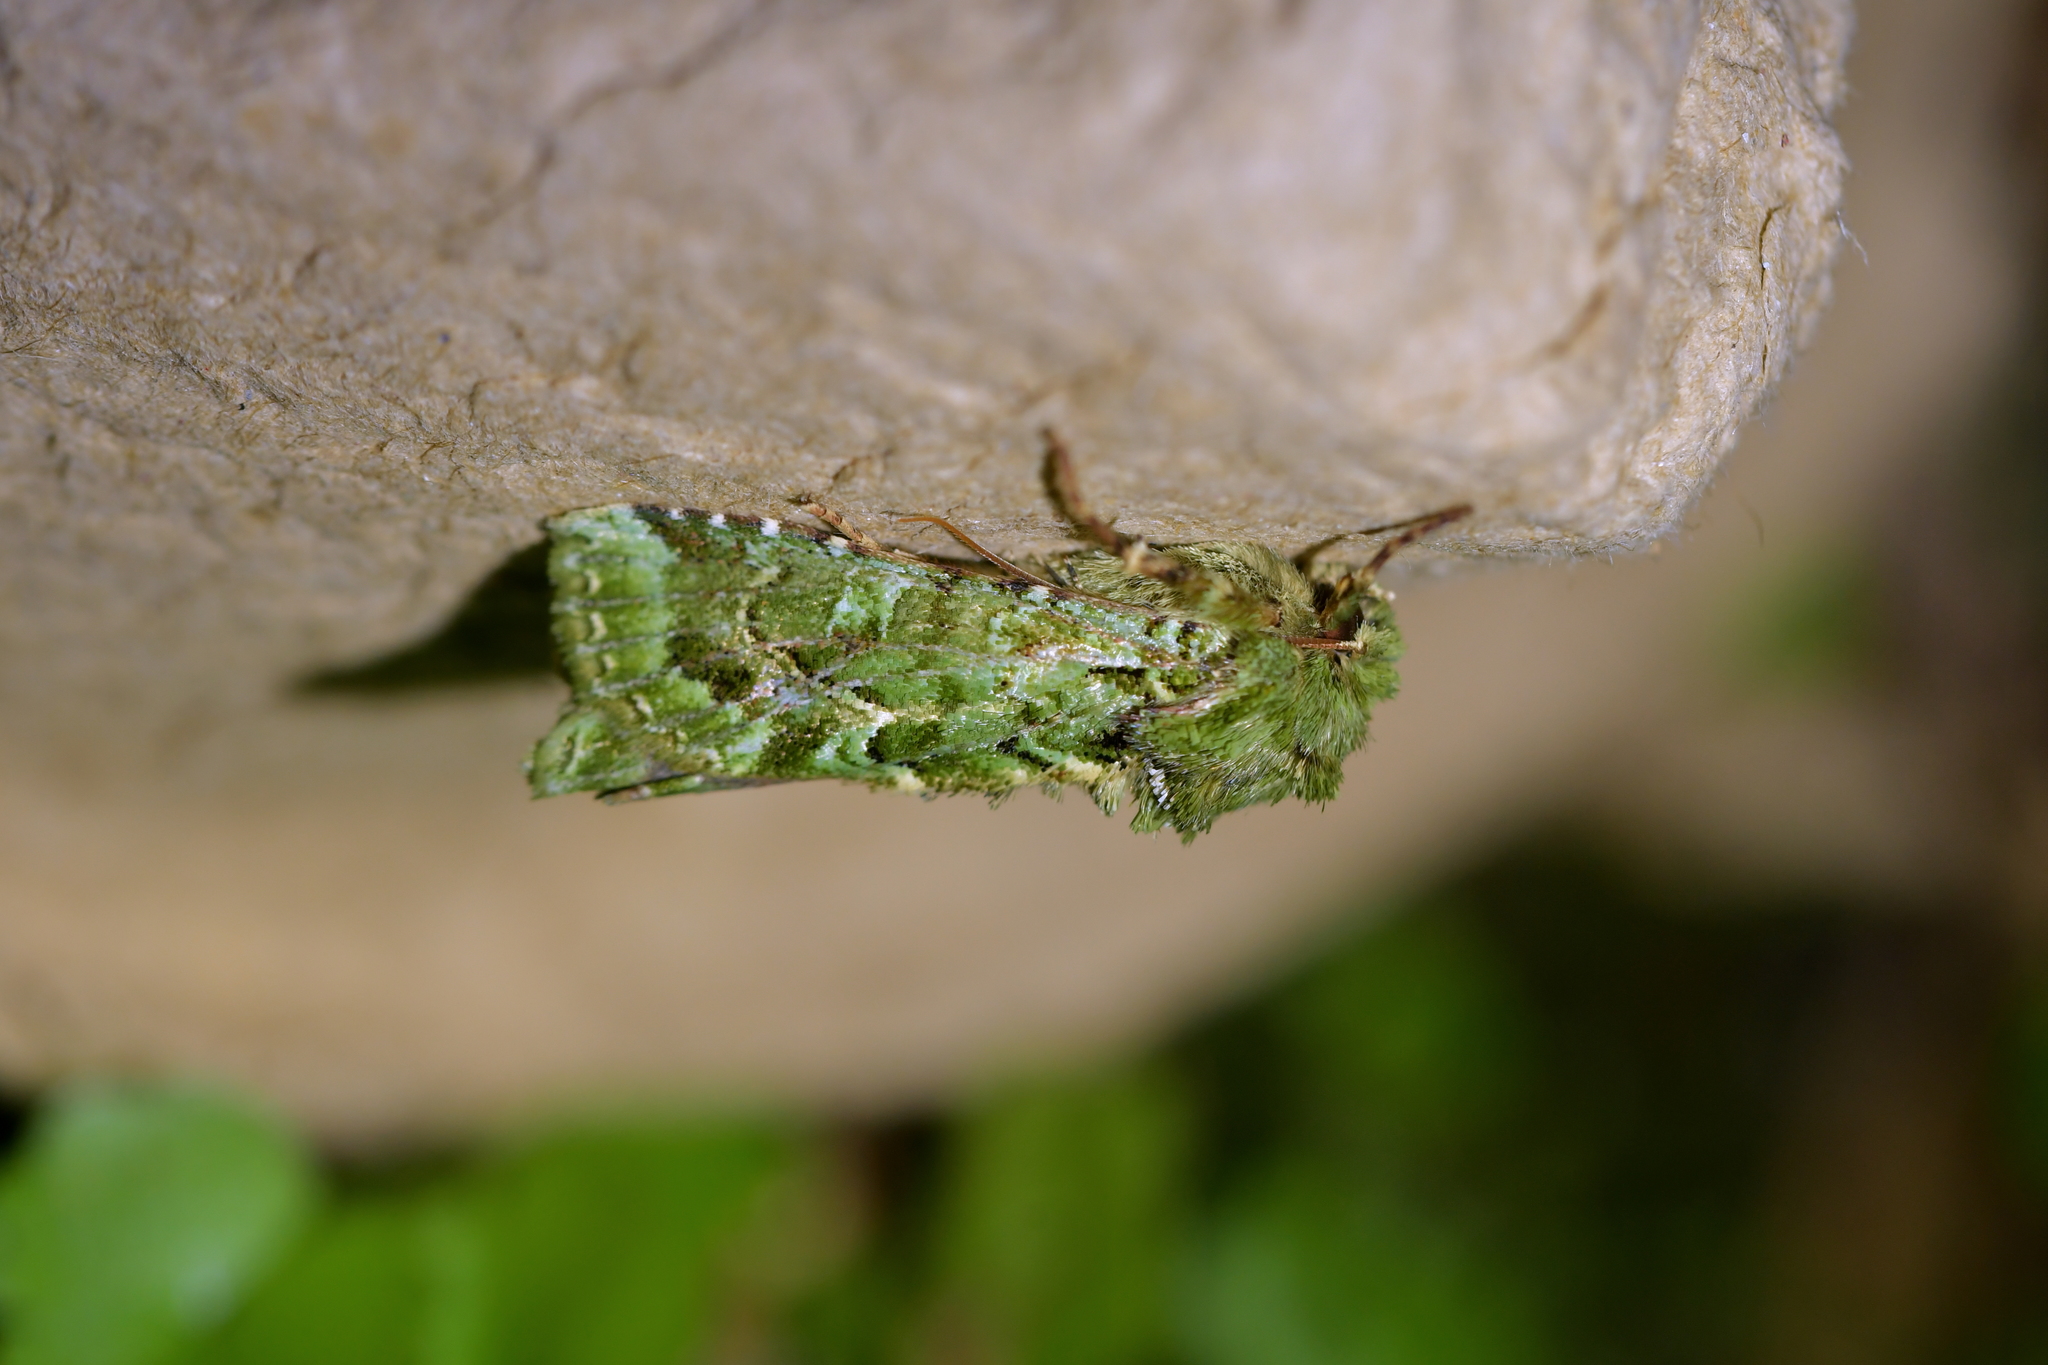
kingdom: Animalia
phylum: Arthropoda
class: Insecta
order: Lepidoptera
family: Noctuidae
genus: Feredayia
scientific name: Feredayia grammosa
